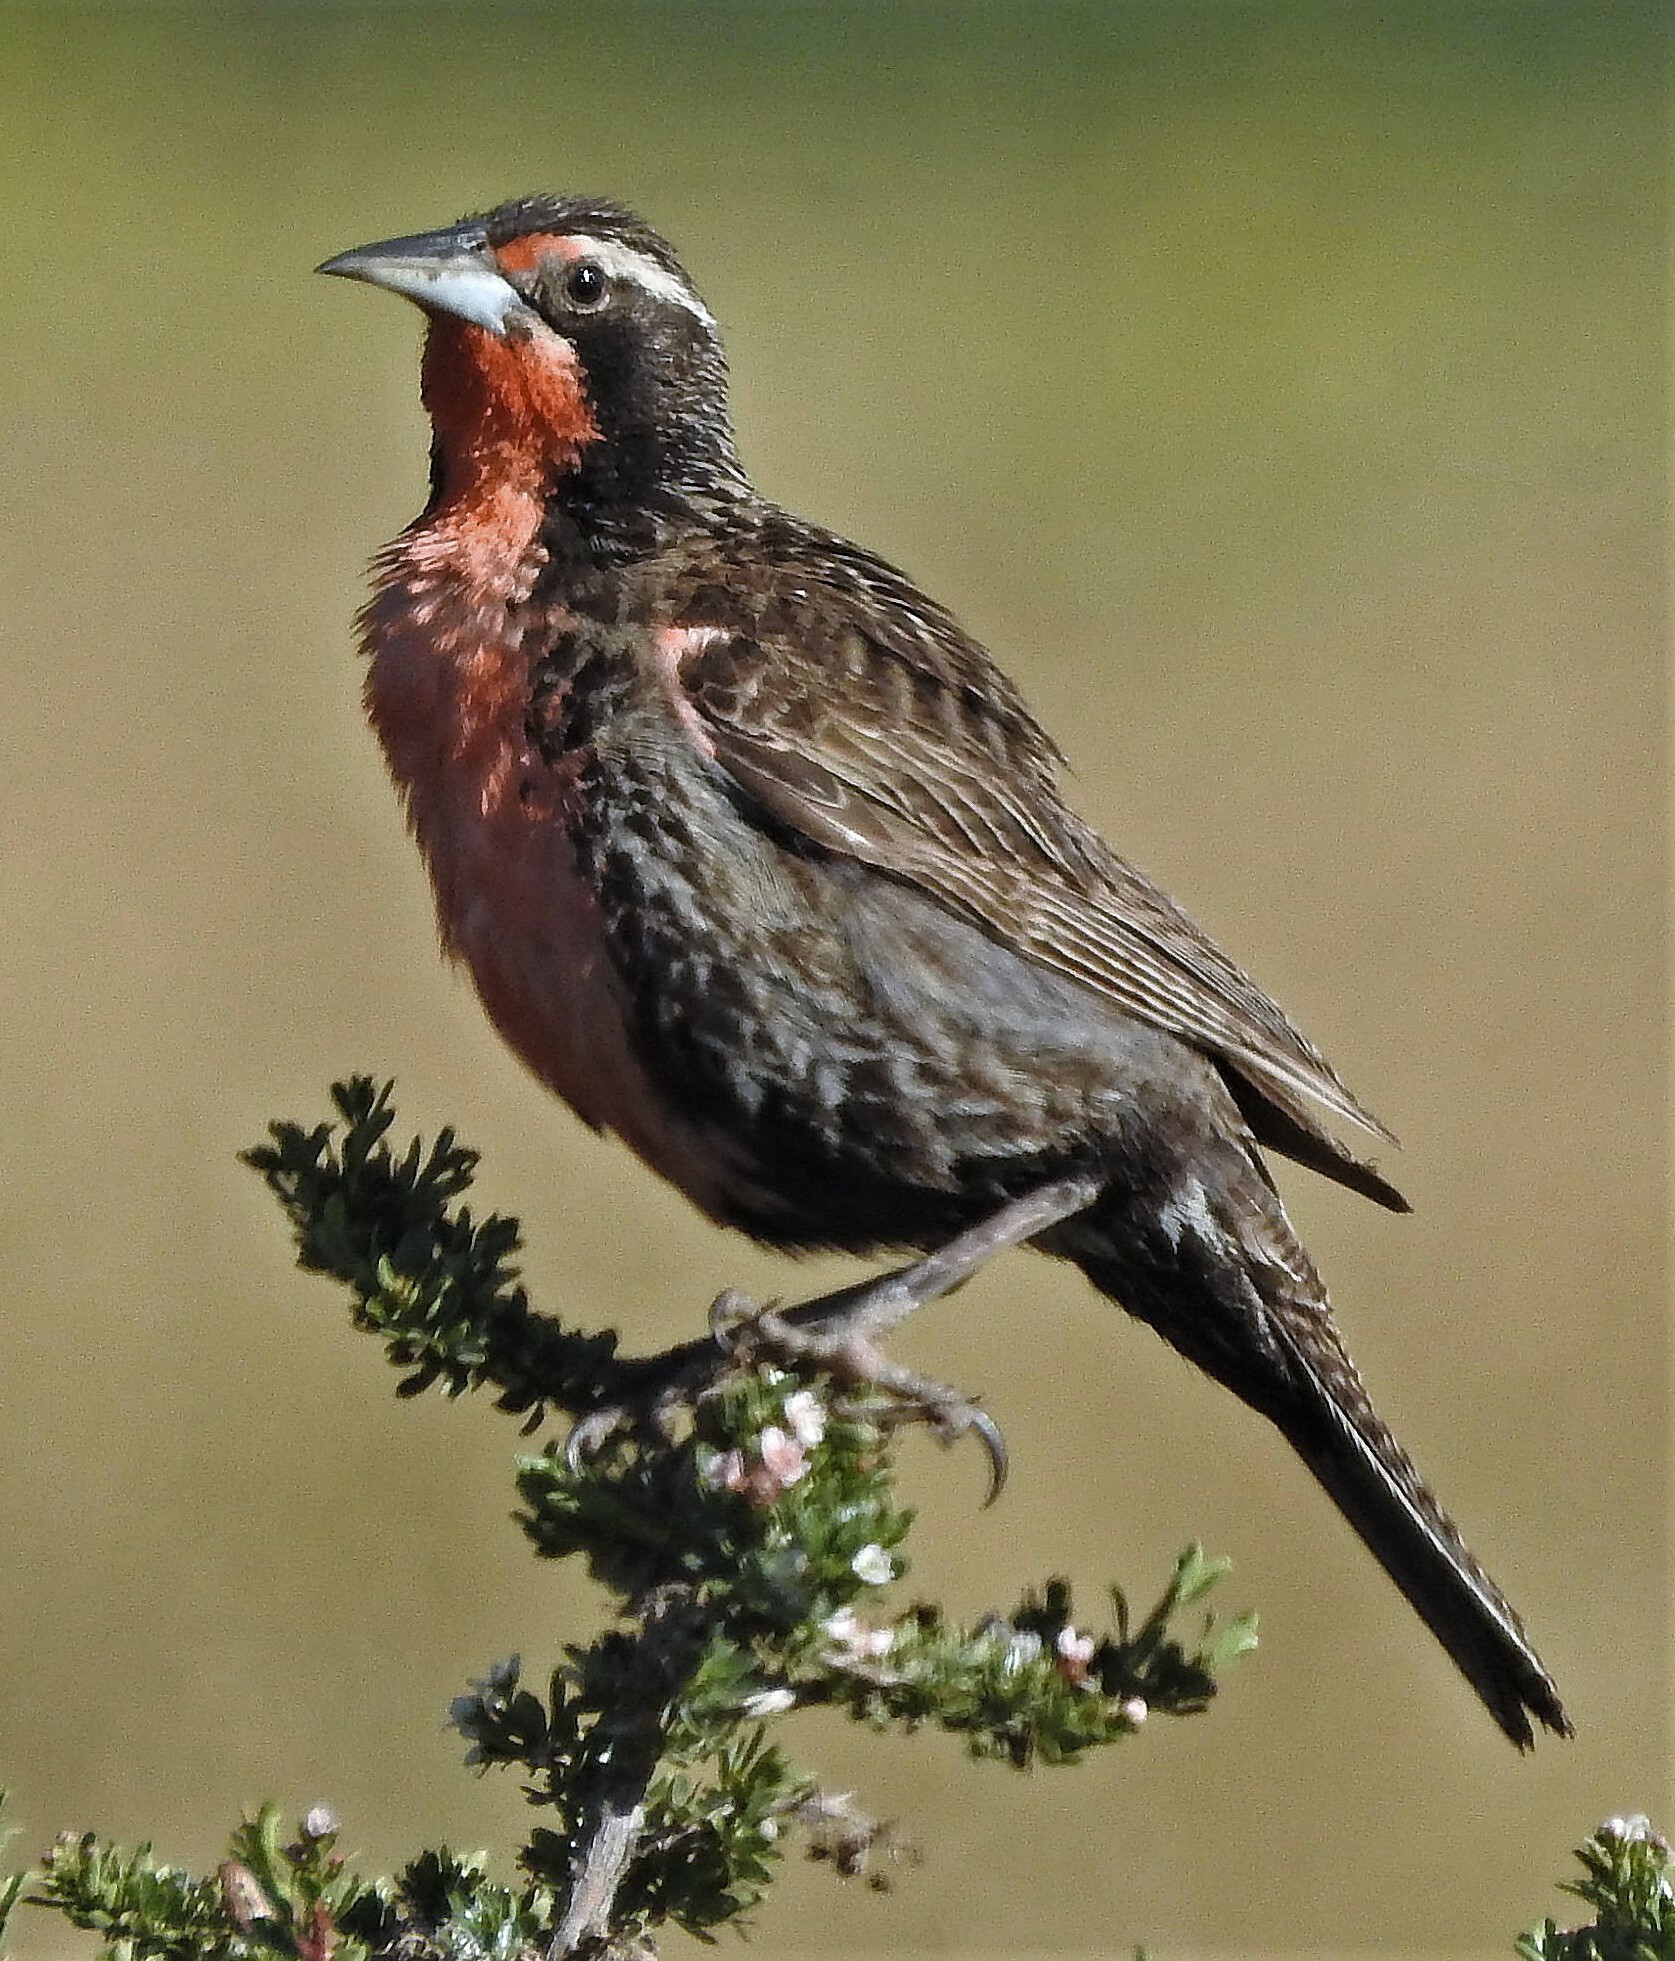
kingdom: Animalia
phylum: Chordata
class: Aves
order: Passeriformes
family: Icteridae
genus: Sturnella
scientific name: Sturnella loyca
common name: Long-tailed meadowlark
